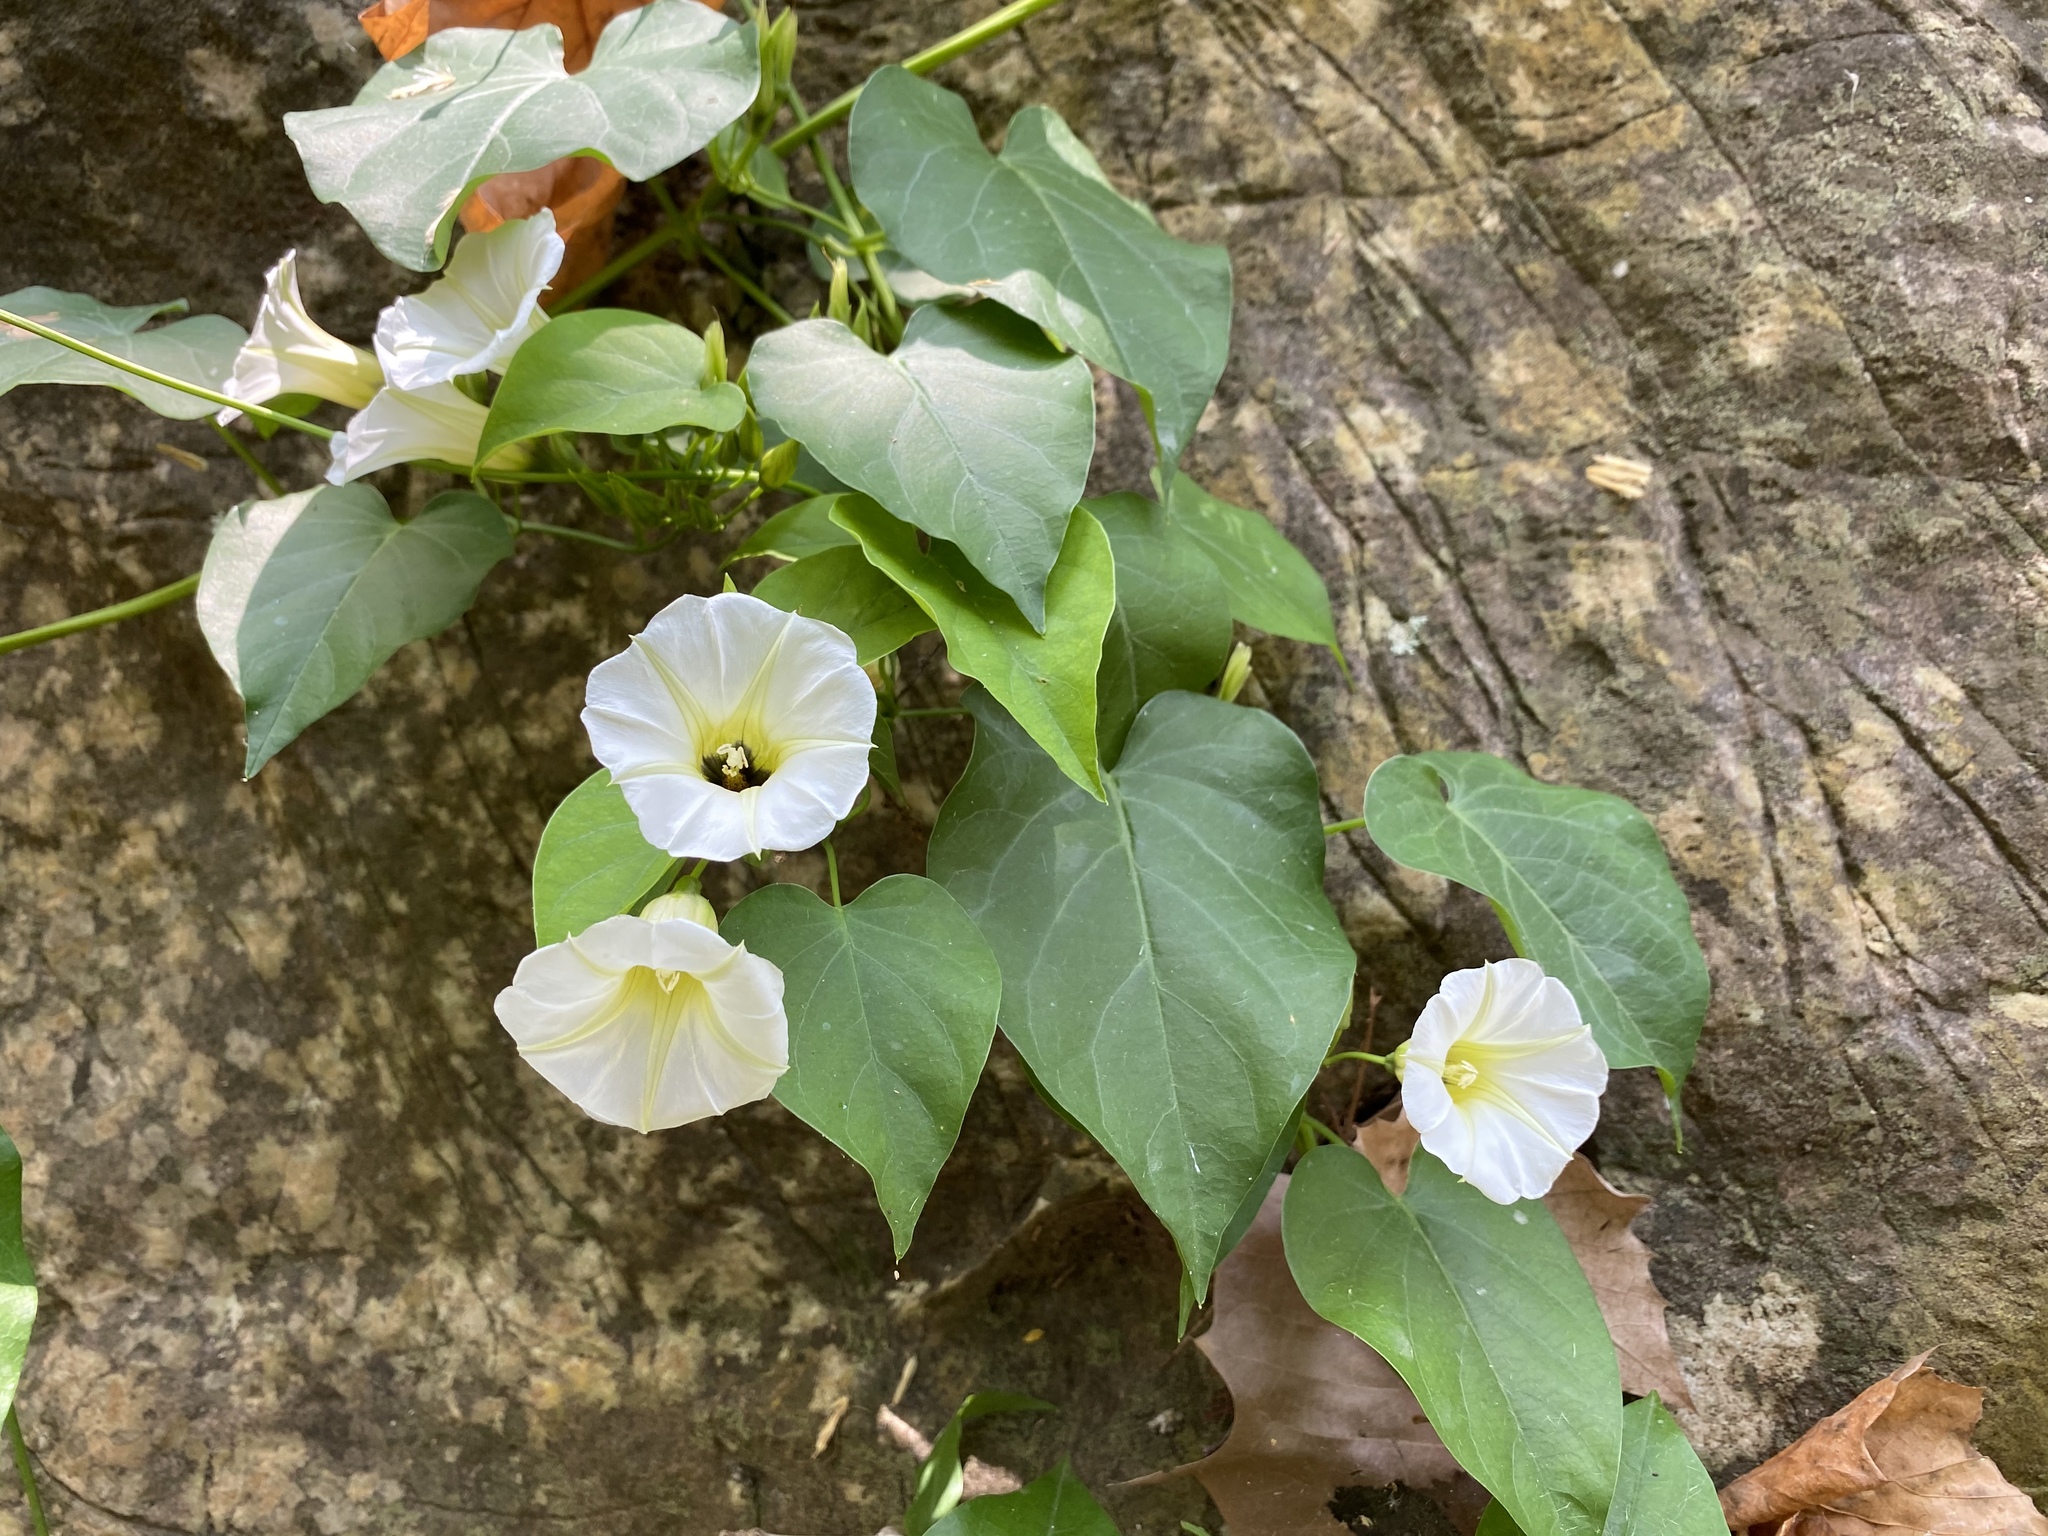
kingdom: Plantae
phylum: Tracheophyta
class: Magnoliopsida
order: Solanales
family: Convolvulaceae
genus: Ipomoea
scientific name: Ipomoea corymbosa
